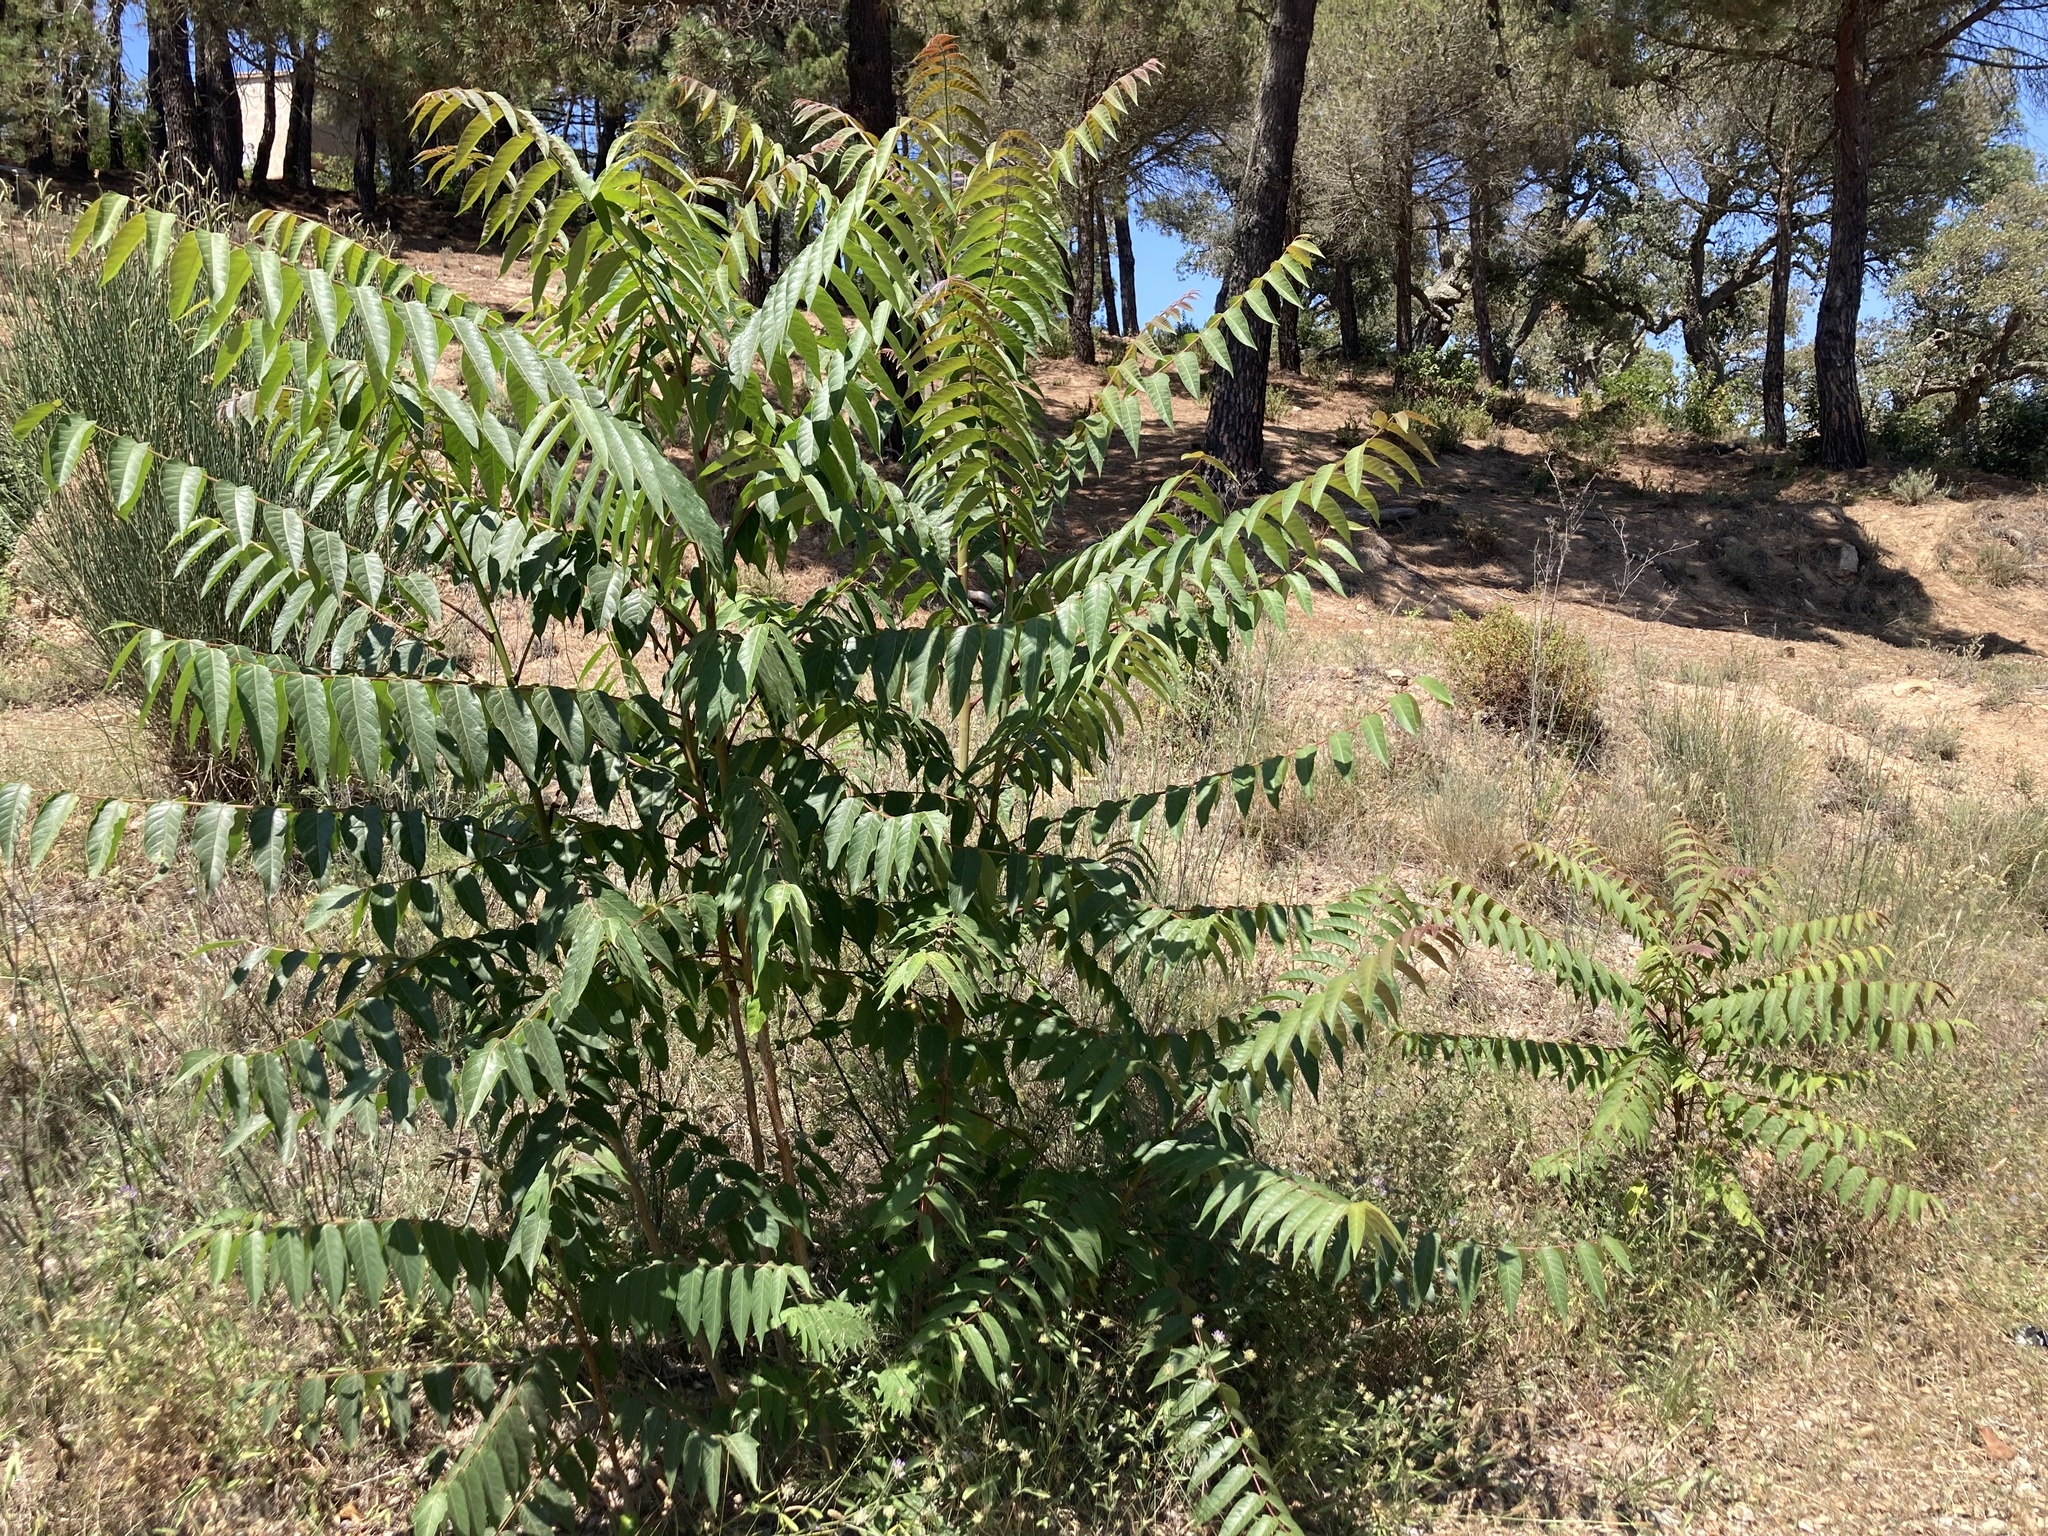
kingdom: Plantae
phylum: Tracheophyta
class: Magnoliopsida
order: Sapindales
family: Simaroubaceae
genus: Ailanthus
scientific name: Ailanthus altissima
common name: Tree-of-heaven
